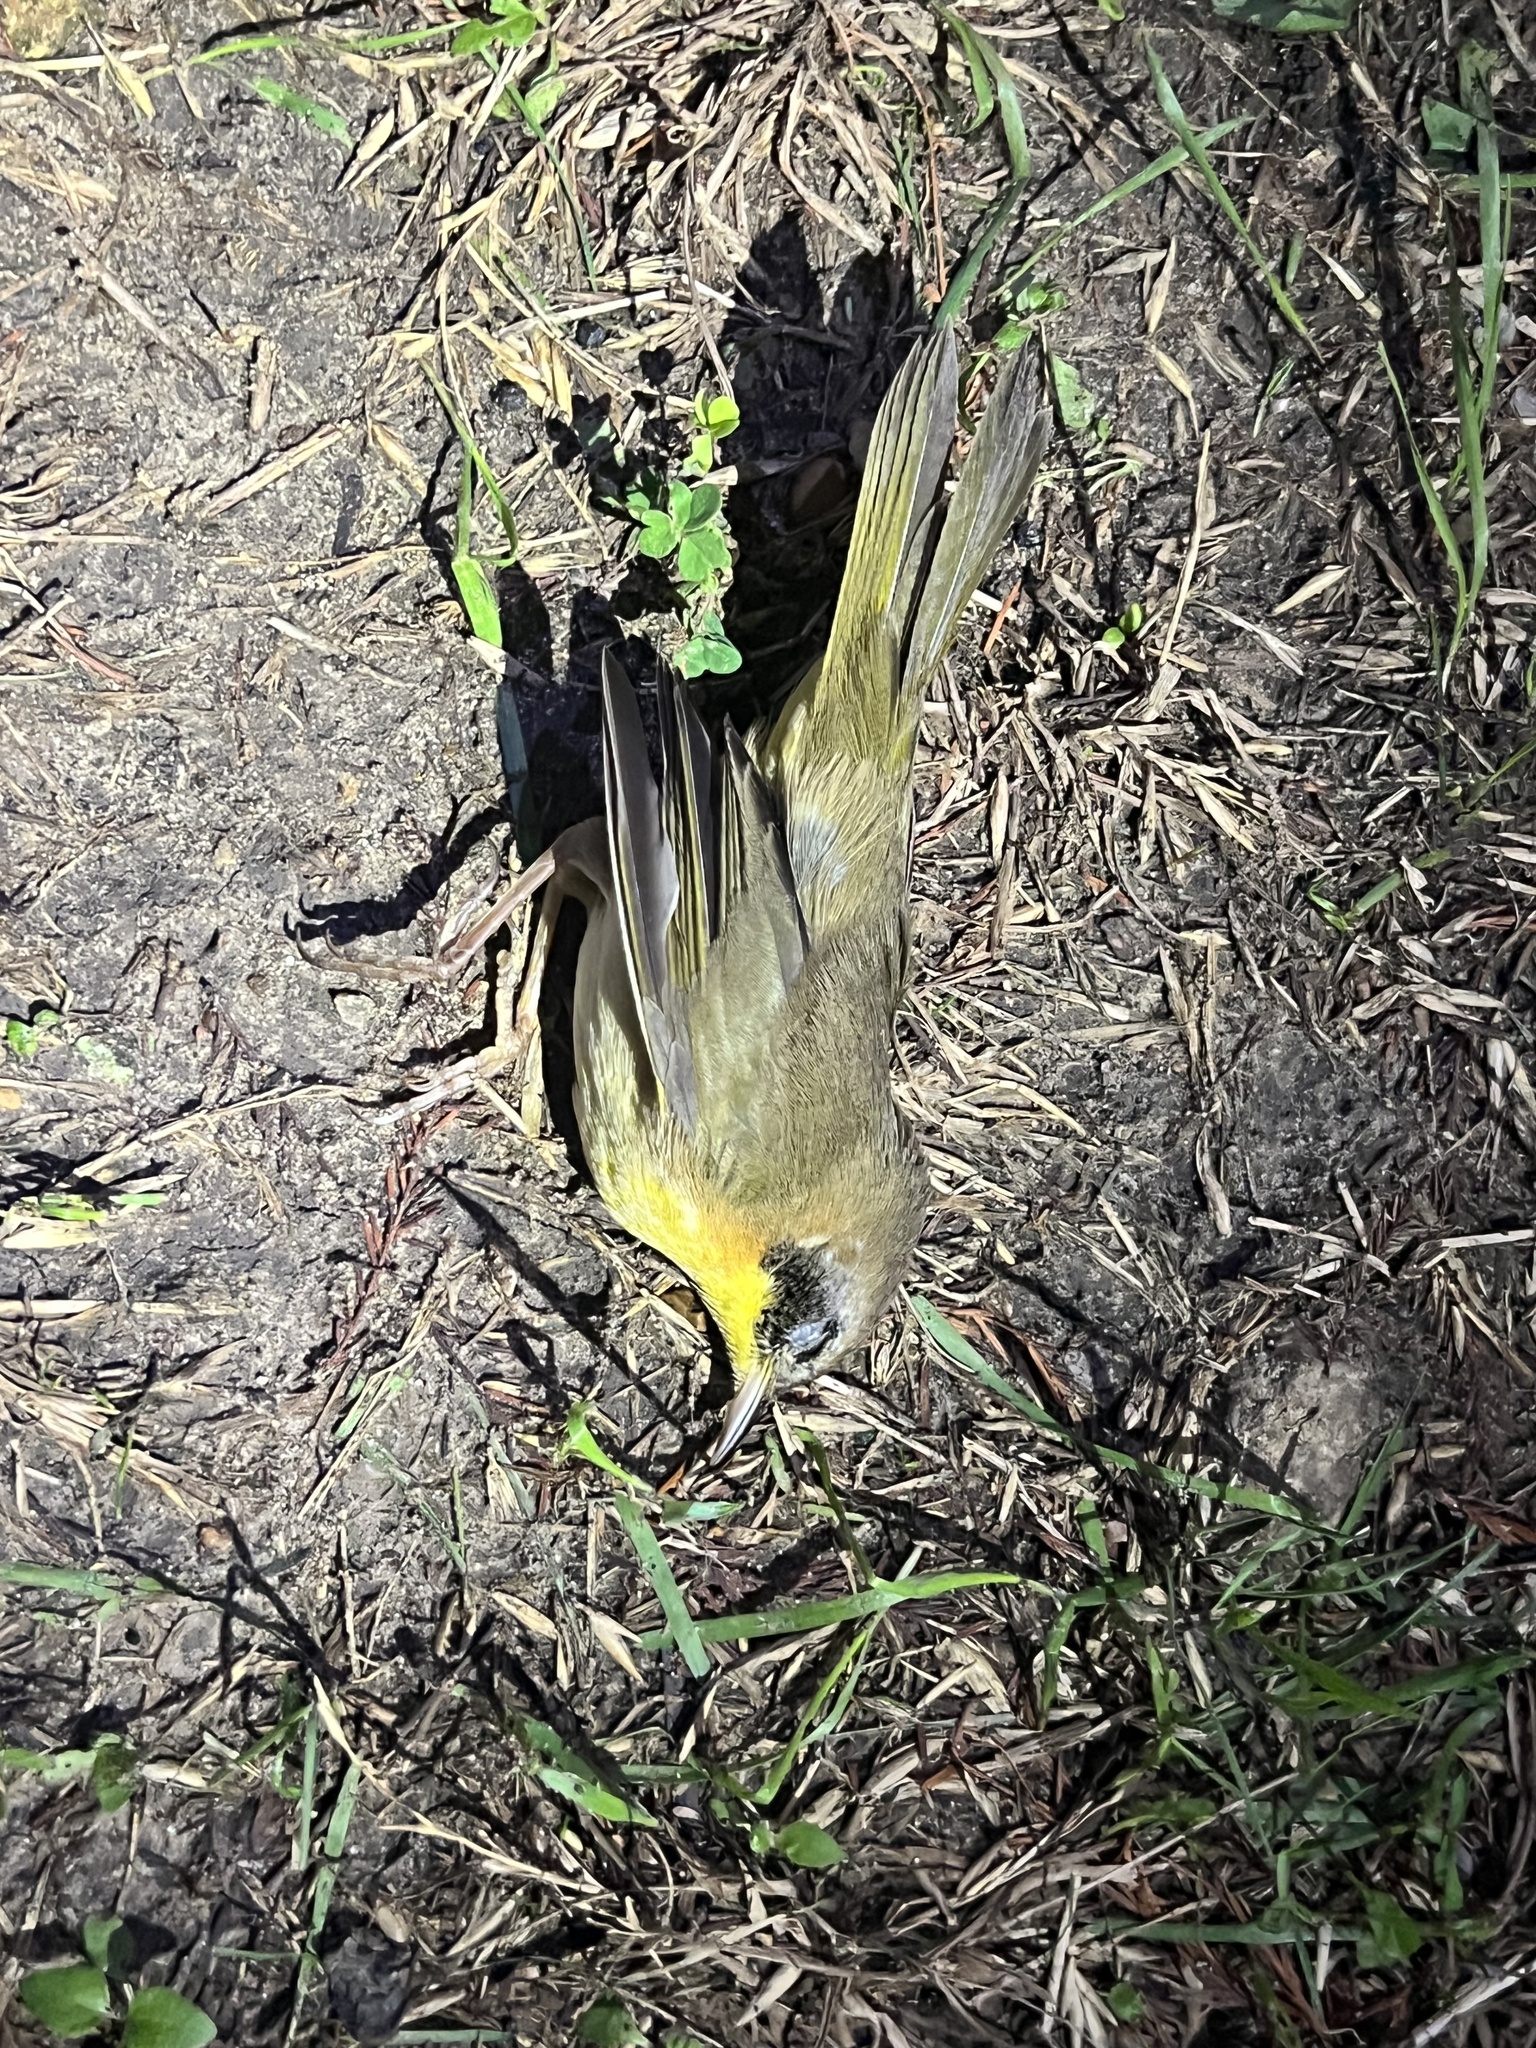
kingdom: Animalia
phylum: Chordata
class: Aves
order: Passeriformes
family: Parulidae
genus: Geothlypis
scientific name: Geothlypis trichas
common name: Common yellowthroat
